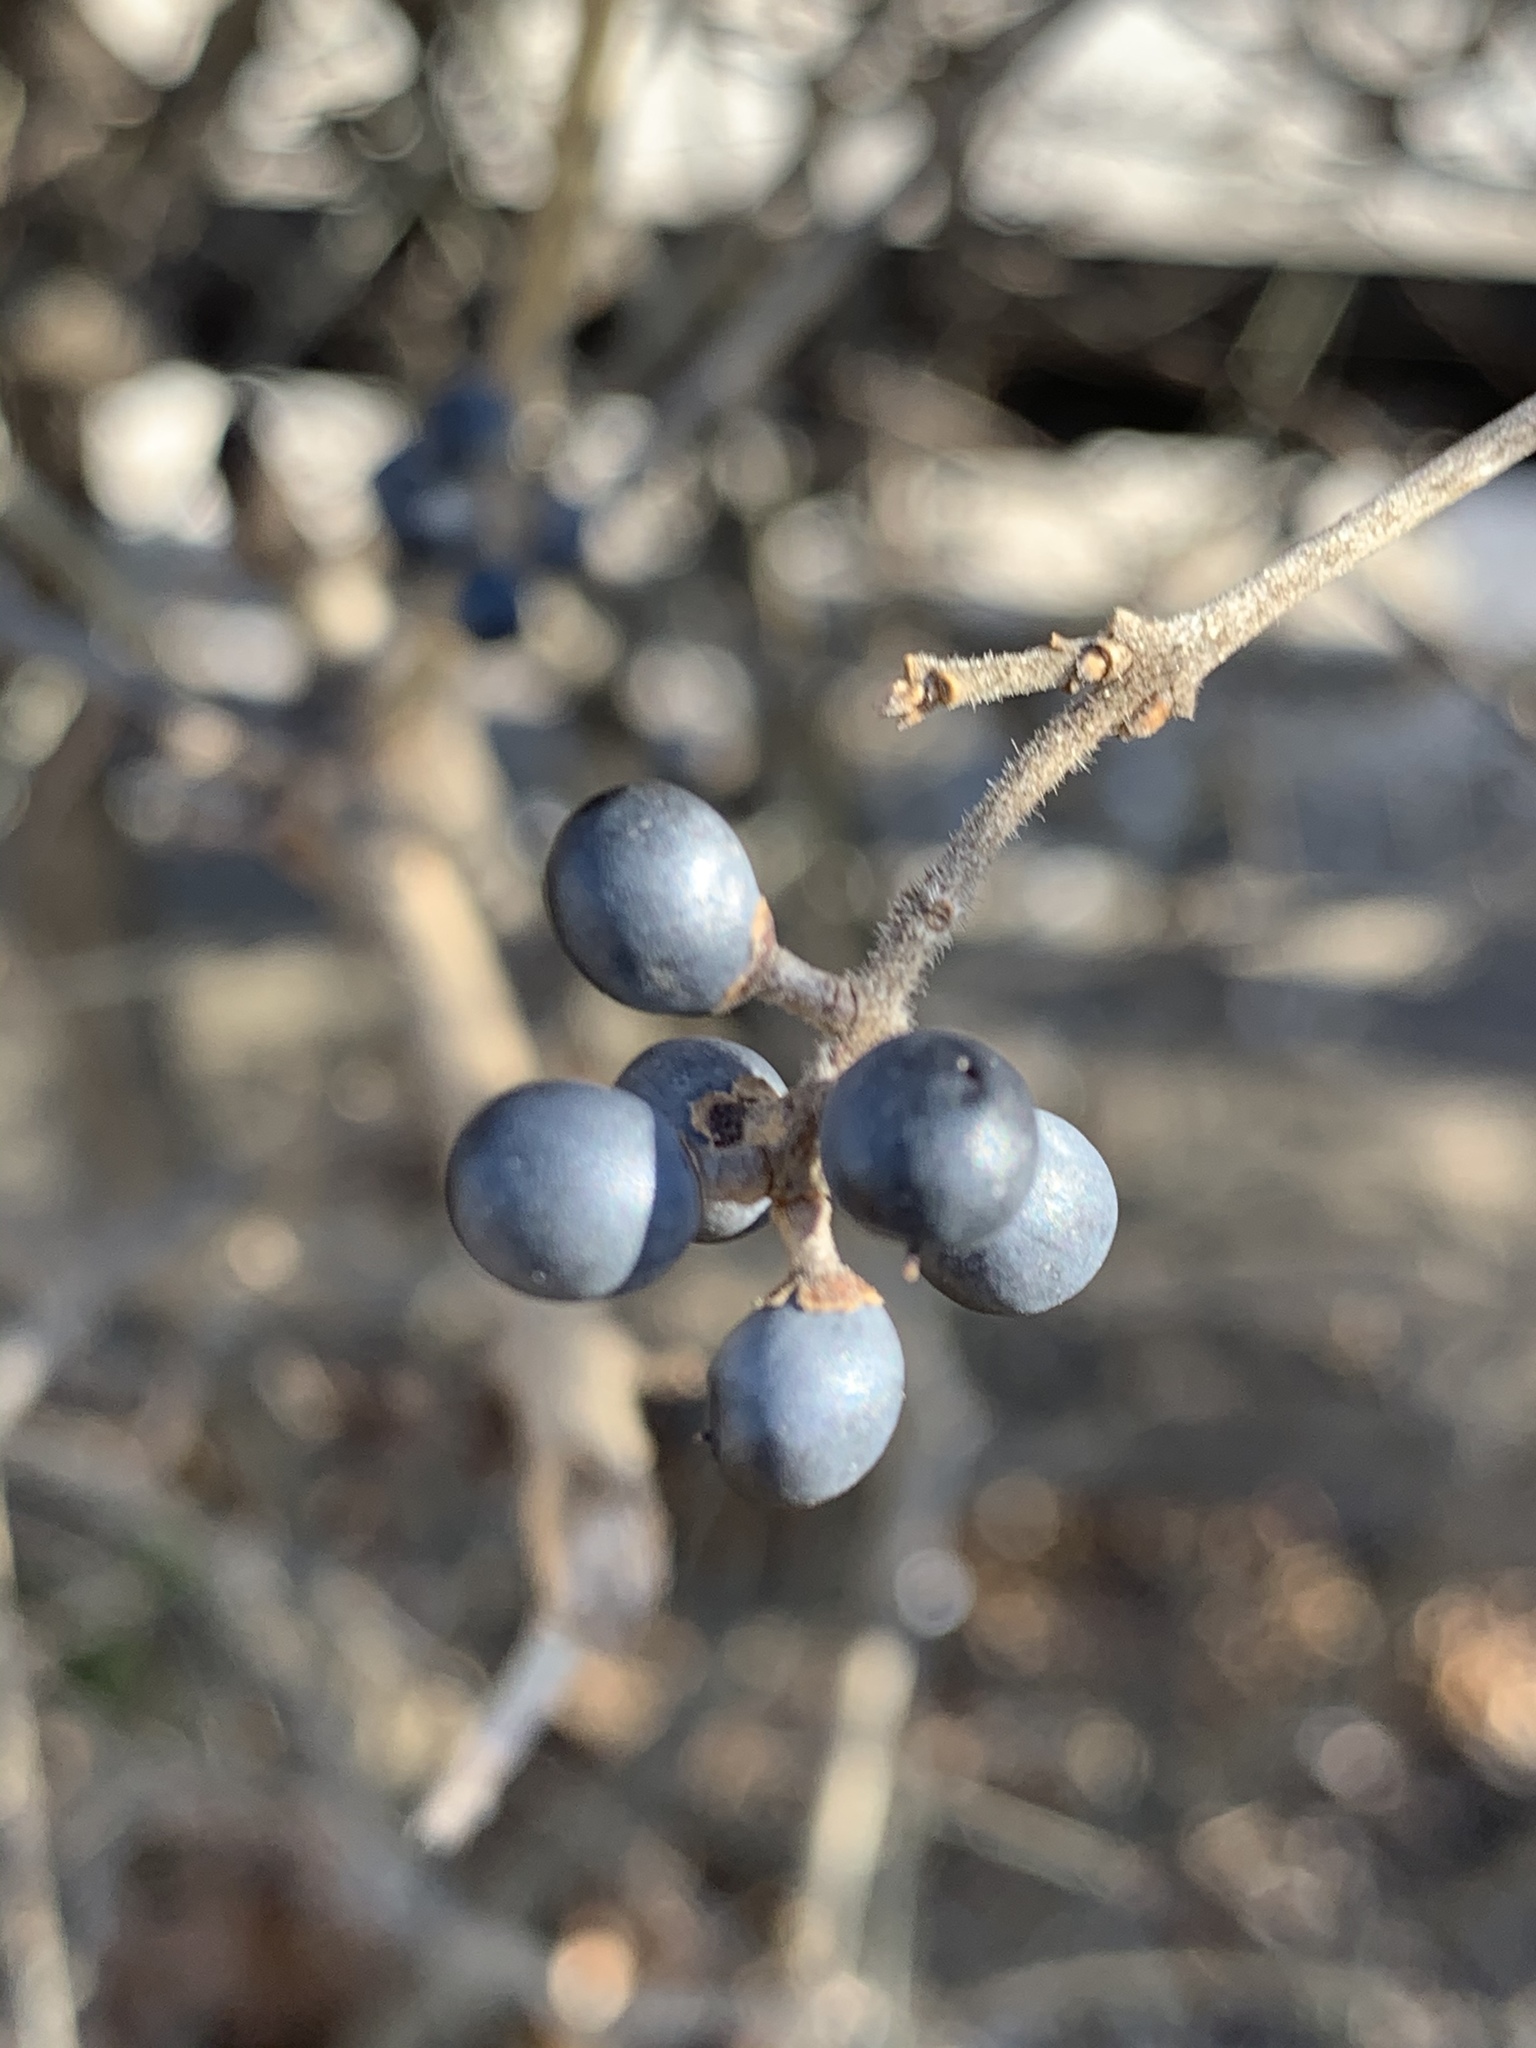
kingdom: Plantae
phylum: Tracheophyta
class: Magnoliopsida
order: Lamiales
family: Oleaceae
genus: Ligustrum
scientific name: Ligustrum obtusifolium
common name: Border privet
